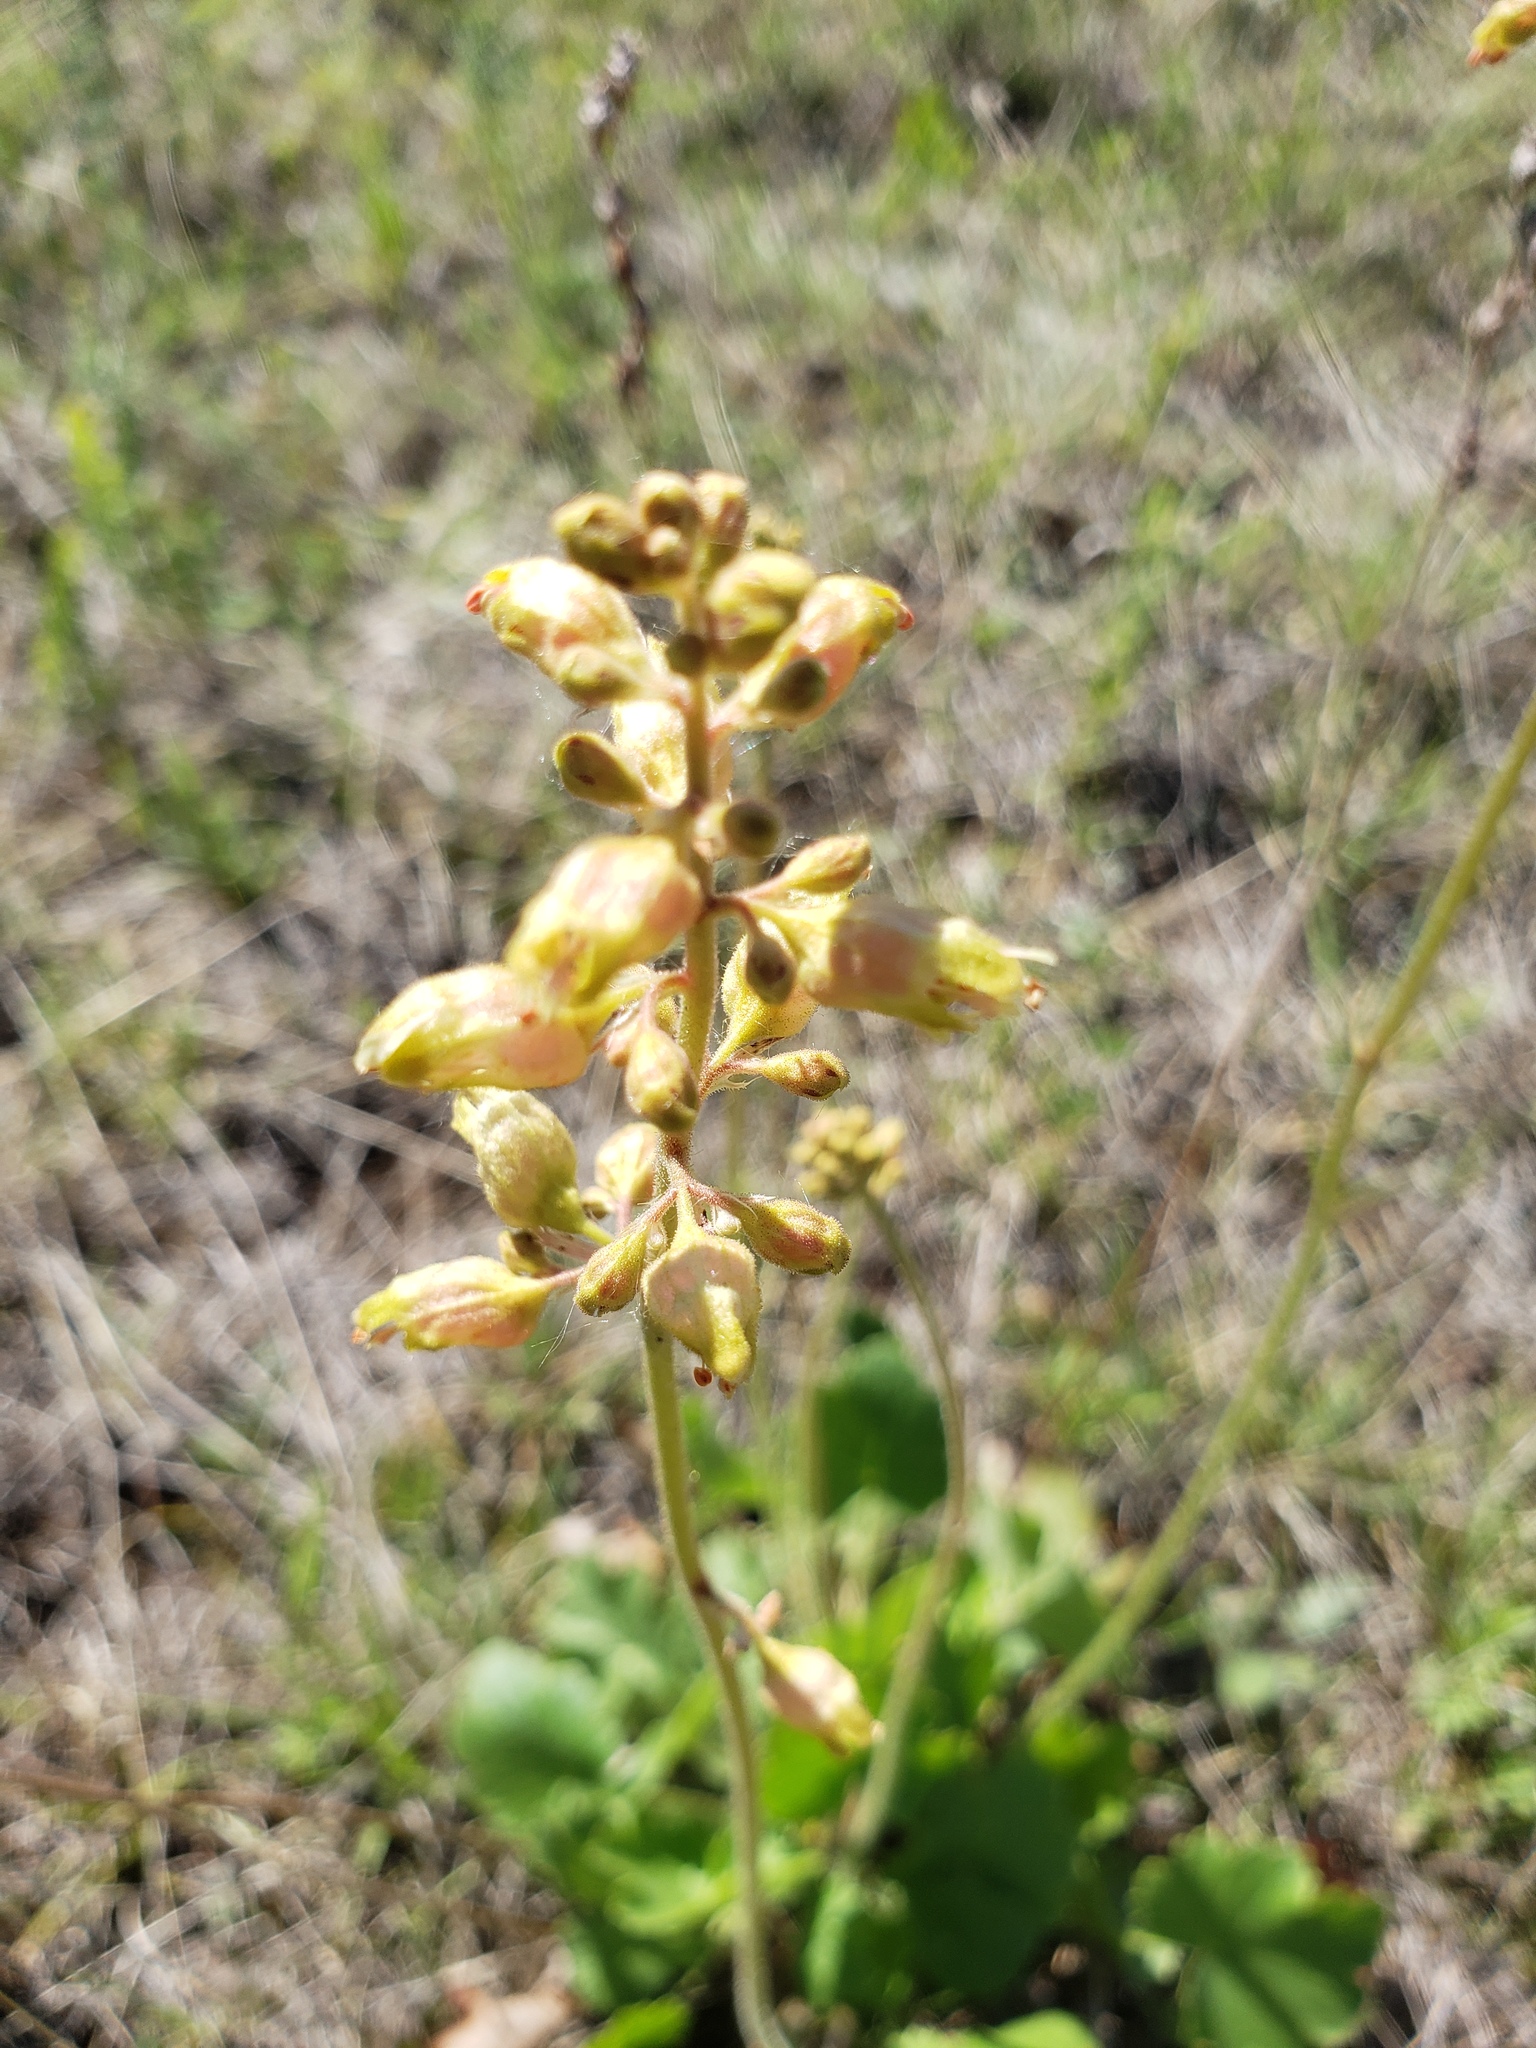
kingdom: Plantae
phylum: Tracheophyta
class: Magnoliopsida
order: Saxifragales
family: Saxifragaceae
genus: Heuchera
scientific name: Heuchera richardsonii
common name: Richardson's alumroot
